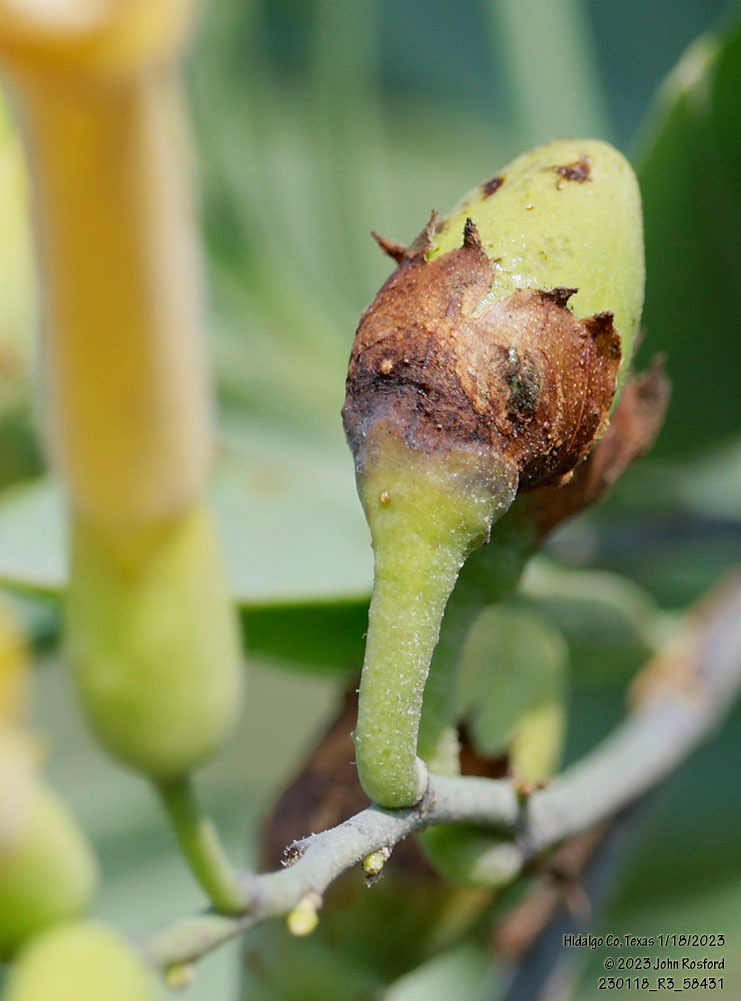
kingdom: Plantae
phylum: Tracheophyta
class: Magnoliopsida
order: Solanales
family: Solanaceae
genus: Nicotiana
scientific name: Nicotiana glauca
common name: Tree tobacco
